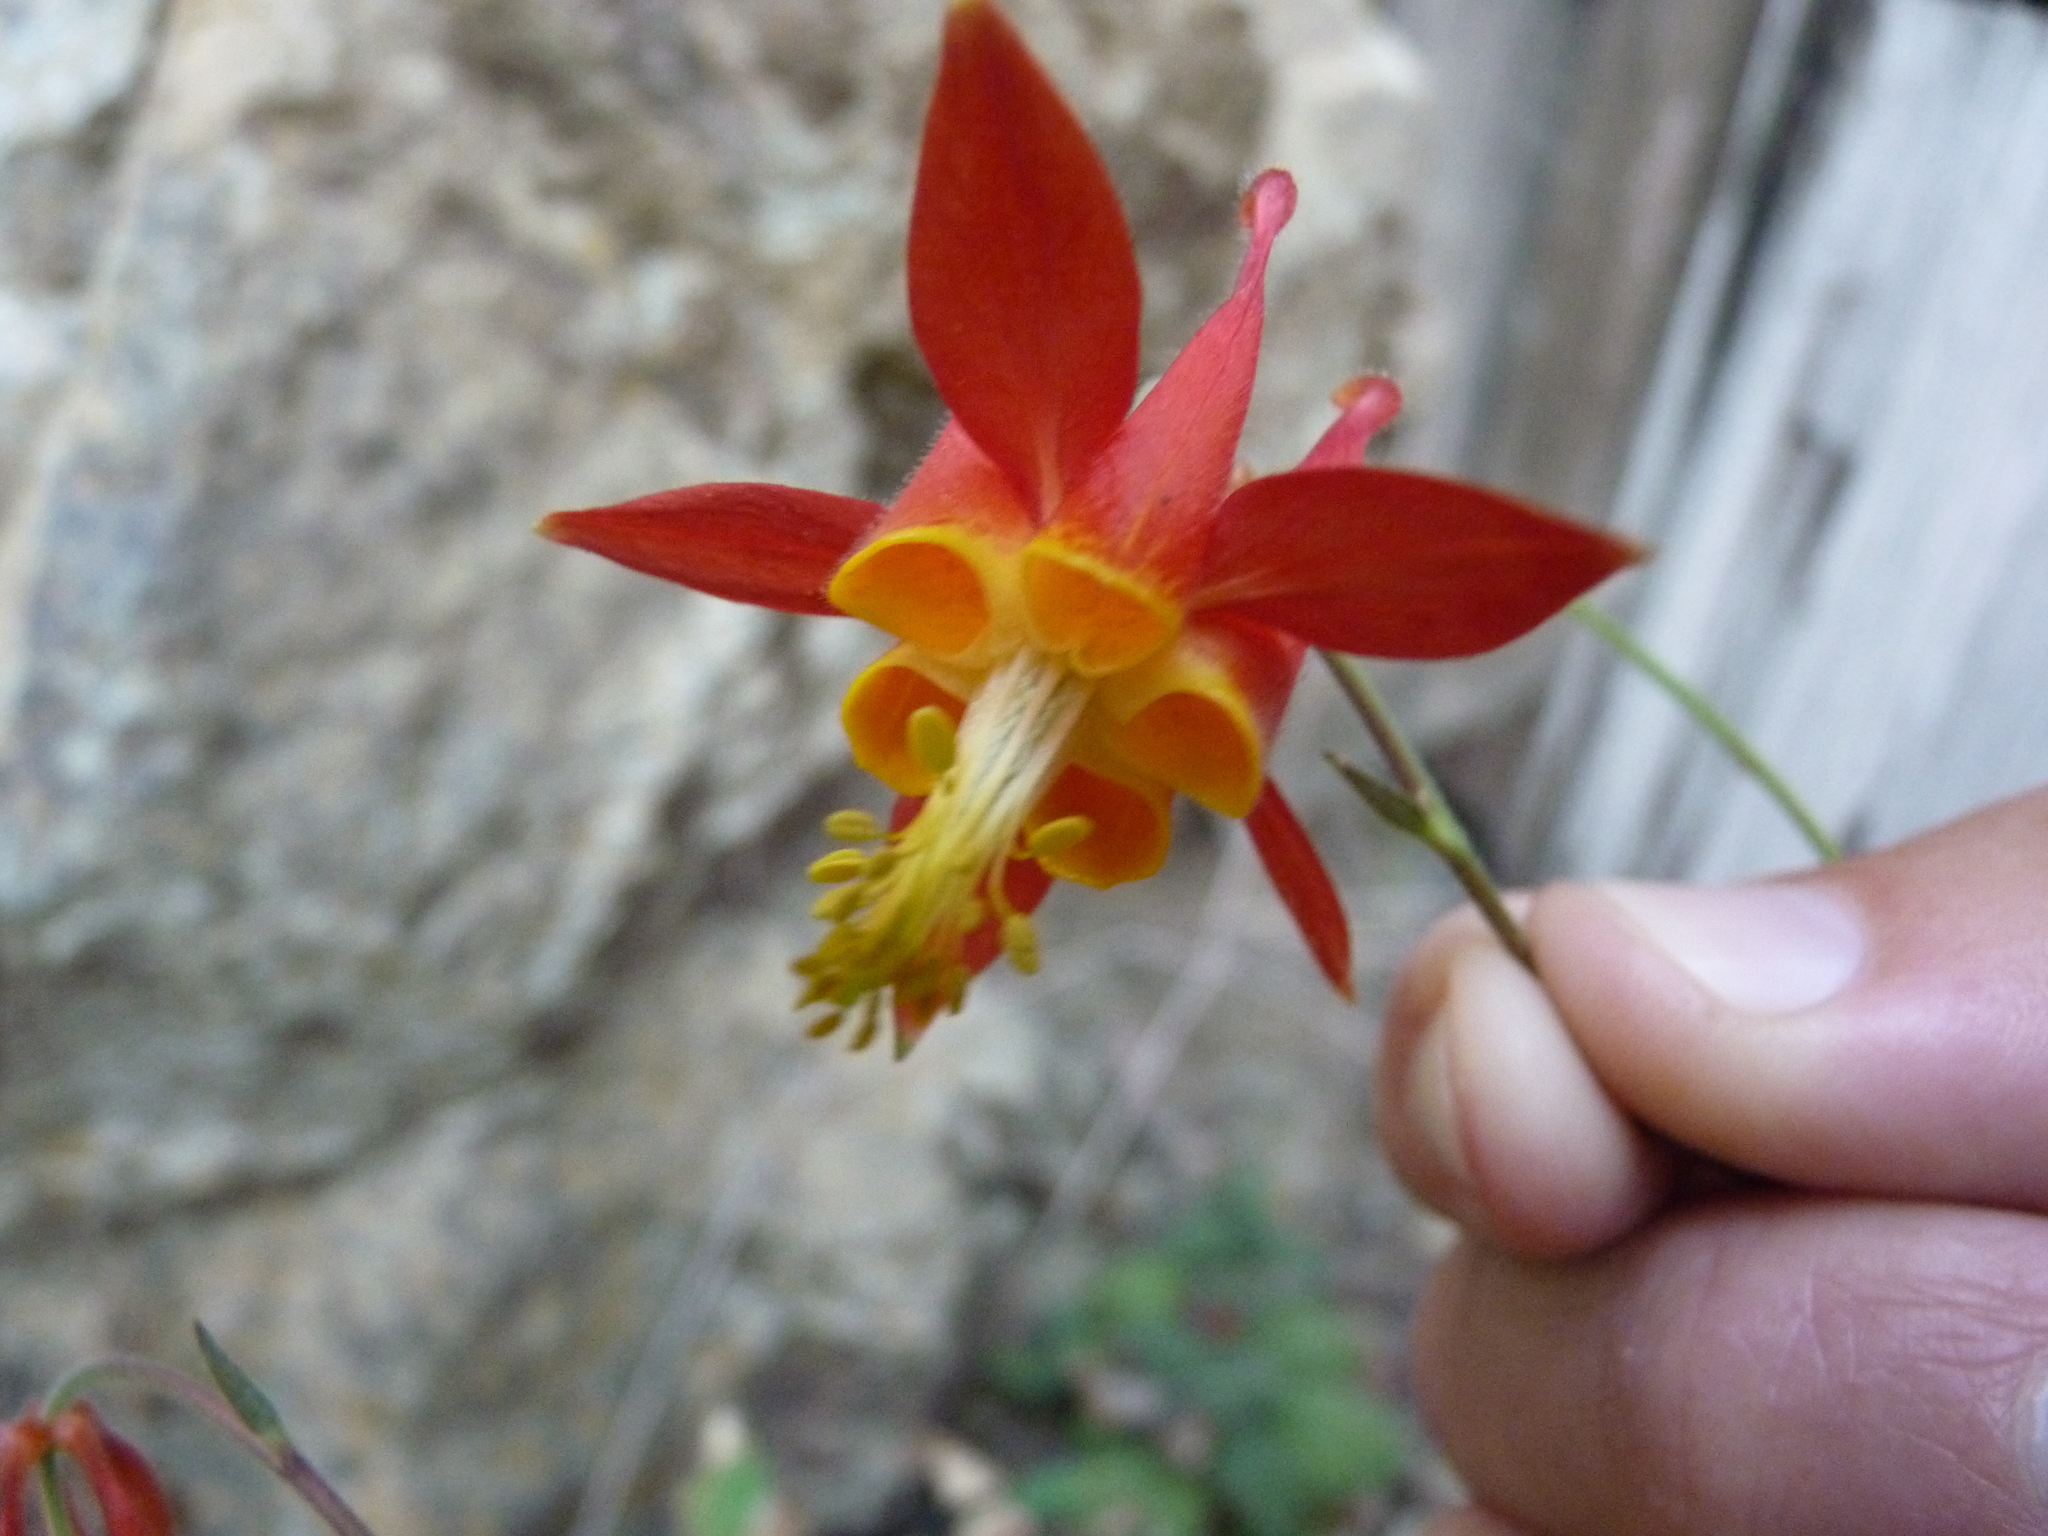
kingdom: Plantae
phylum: Tracheophyta
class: Magnoliopsida
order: Ranunculales
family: Ranunculaceae
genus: Aquilegia
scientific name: Aquilegia formosa
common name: Sitka columbine
